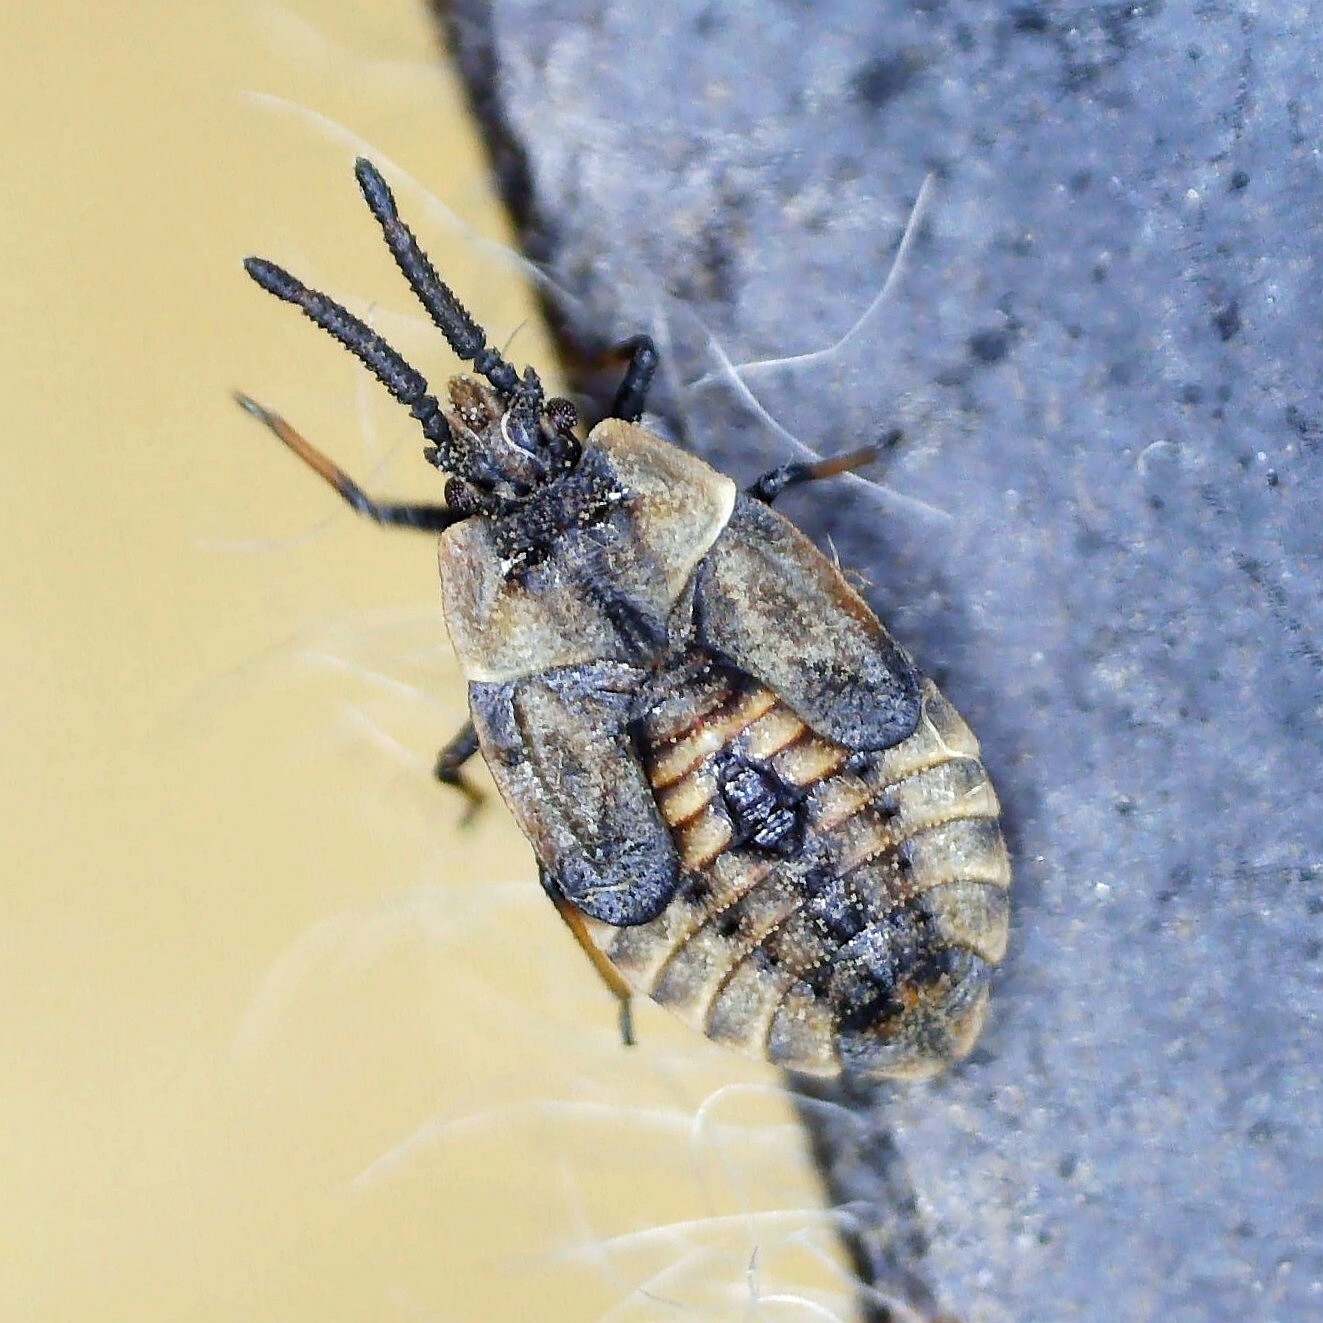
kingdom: Animalia
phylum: Arthropoda
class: Insecta
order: Hemiptera
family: Tingidae
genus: Dictyonota
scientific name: Dictyonota fuliginosa
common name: Lace bug
